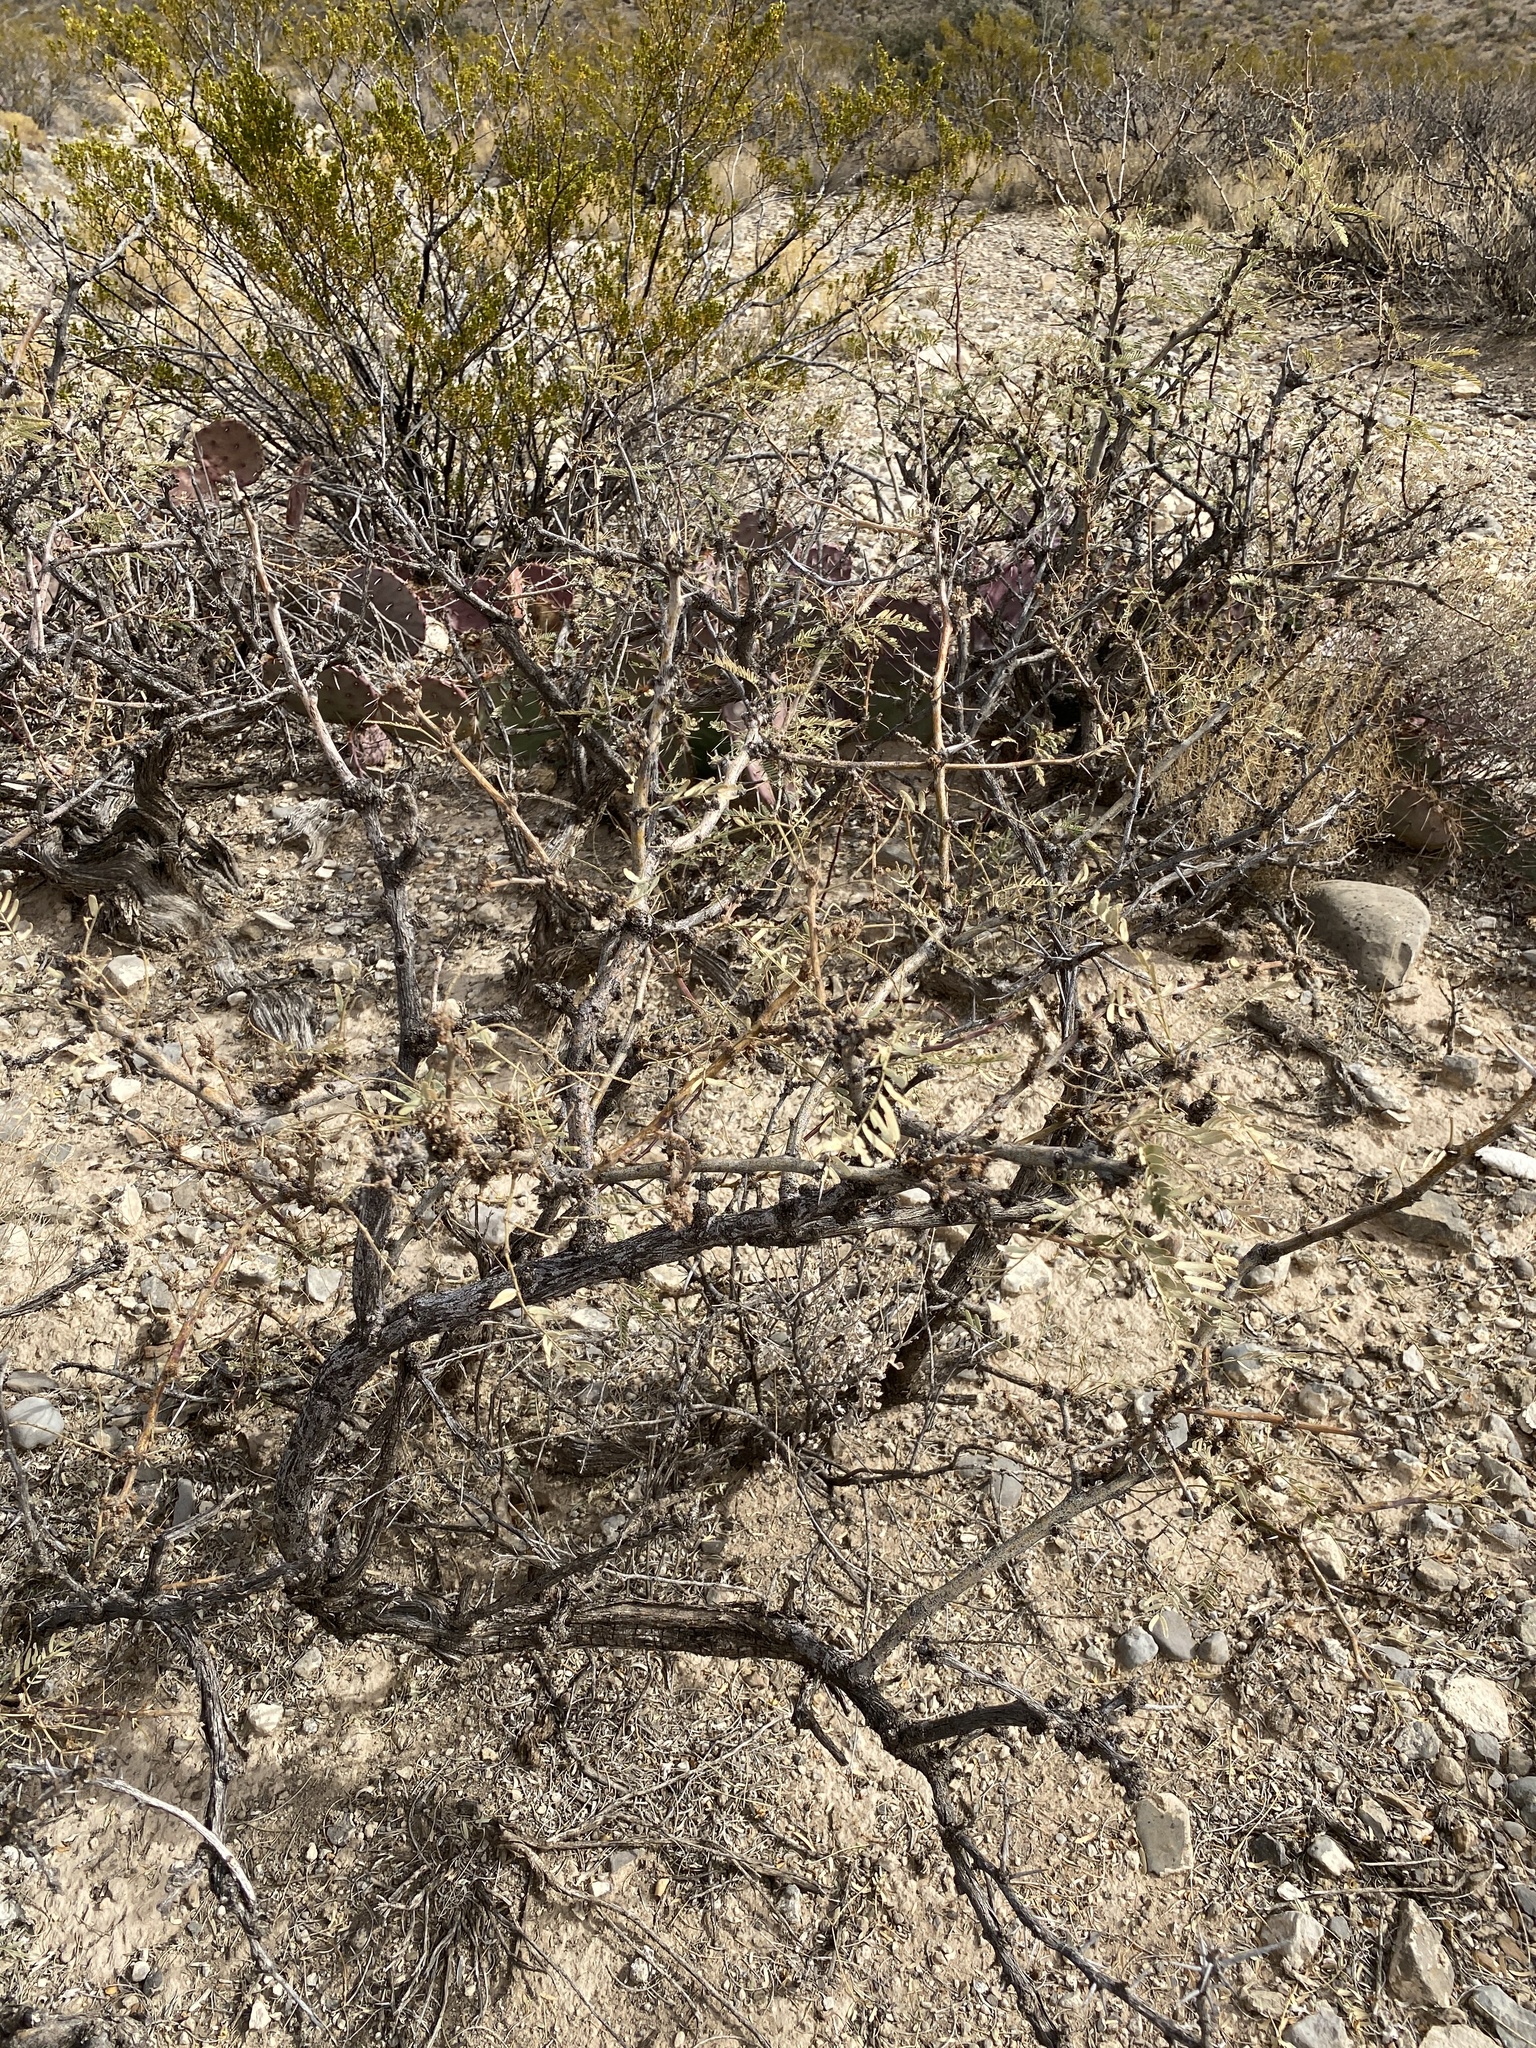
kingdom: Plantae
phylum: Tracheophyta
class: Magnoliopsida
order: Fabales
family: Fabaceae
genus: Prosopis
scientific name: Prosopis glandulosa
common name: Honey mesquite
